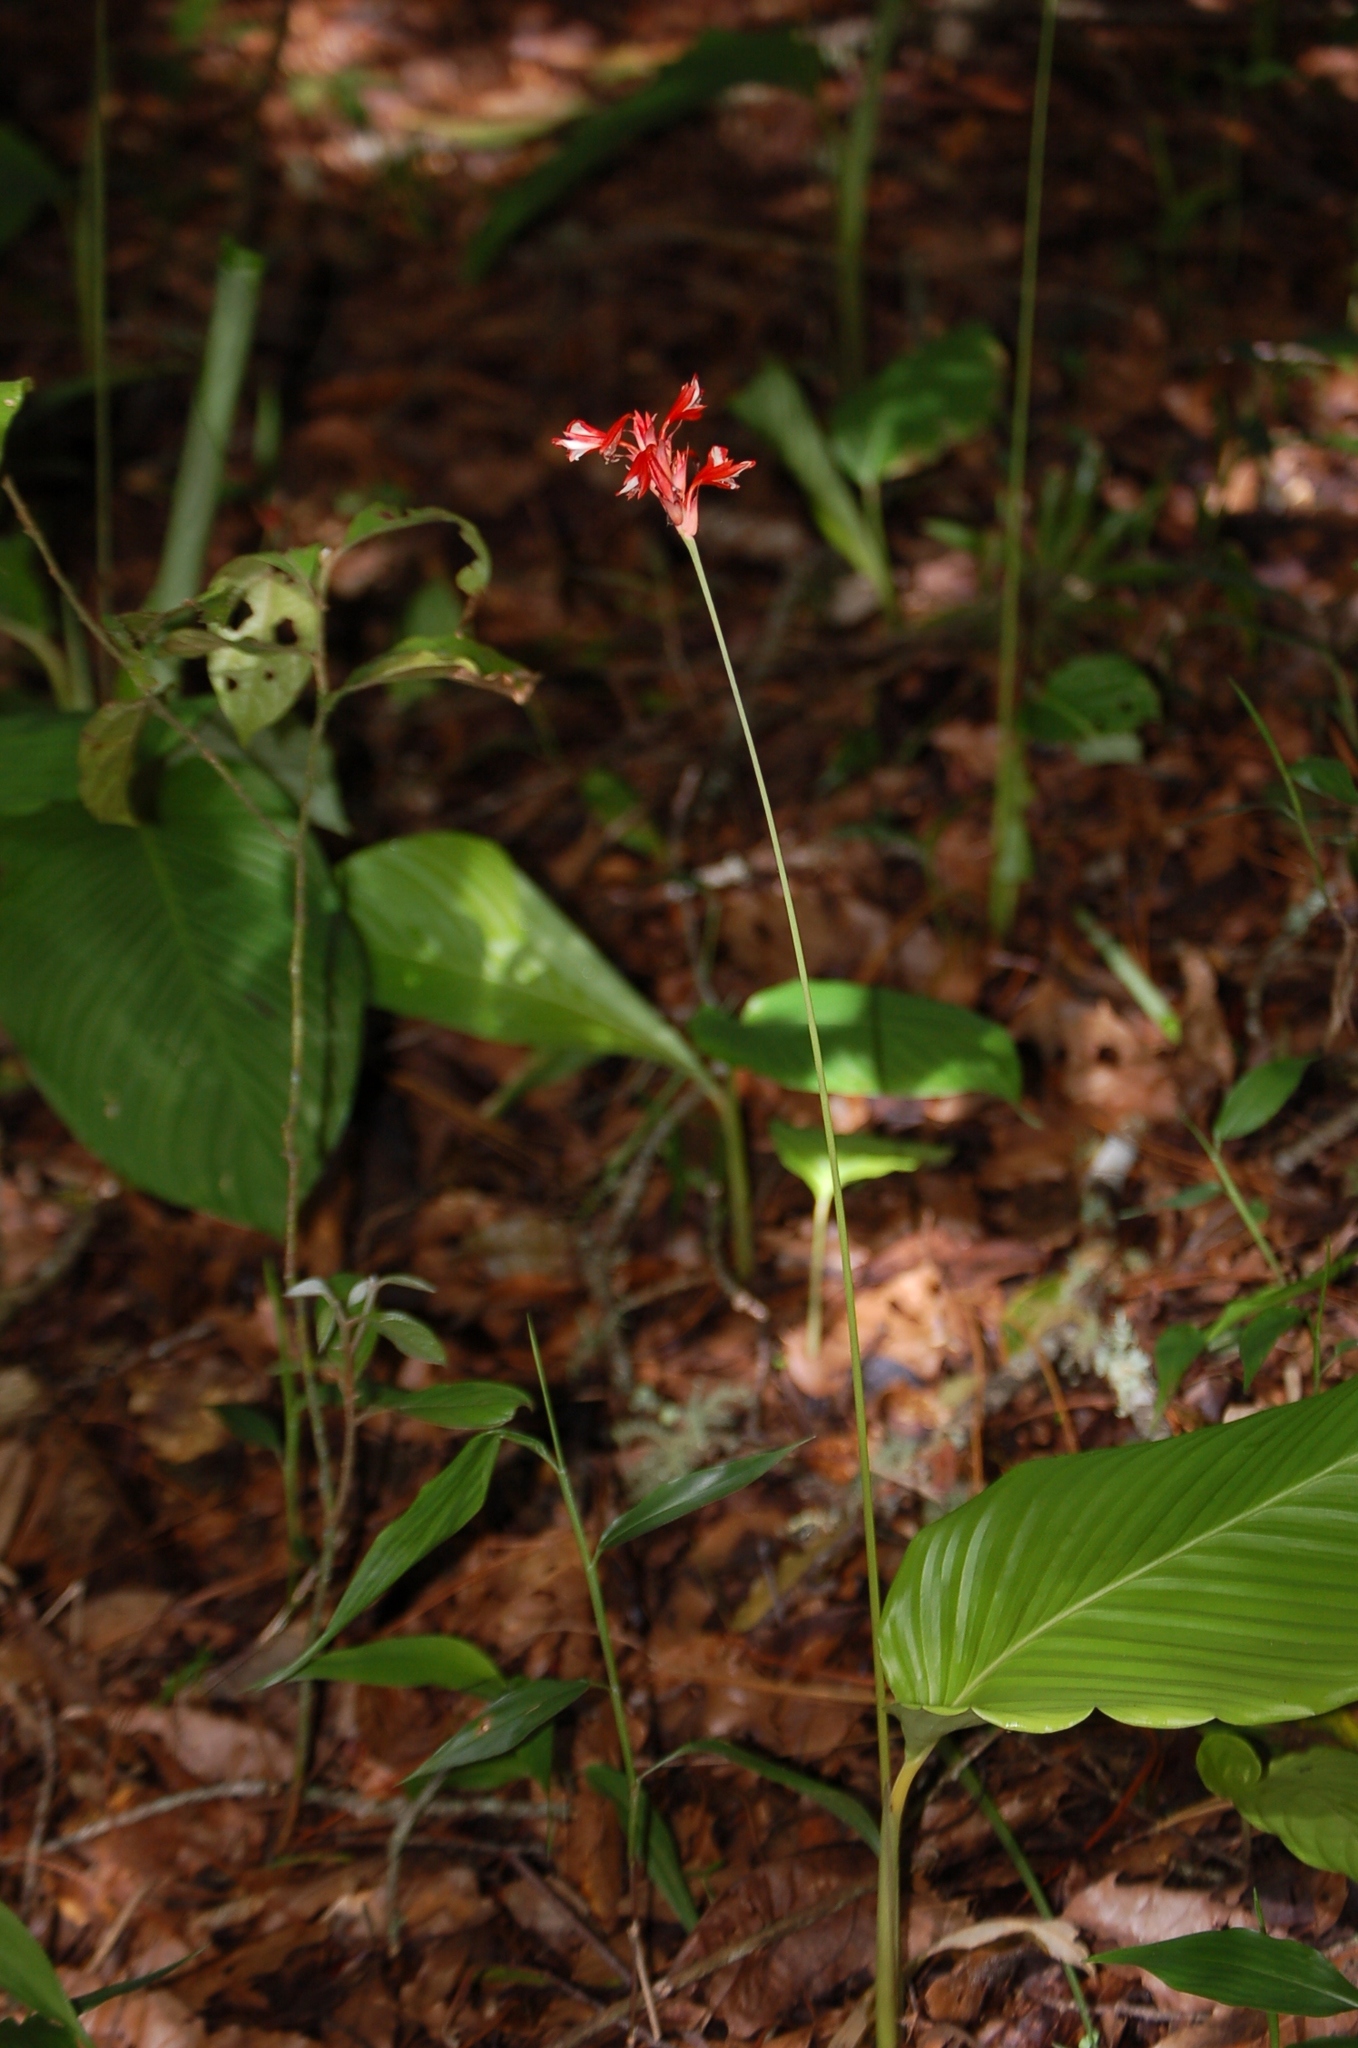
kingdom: Plantae
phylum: Tracheophyta
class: Liliopsida
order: Zingiberales
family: Marantaceae
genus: Goeppertia
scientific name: Goeppertia coccinea
